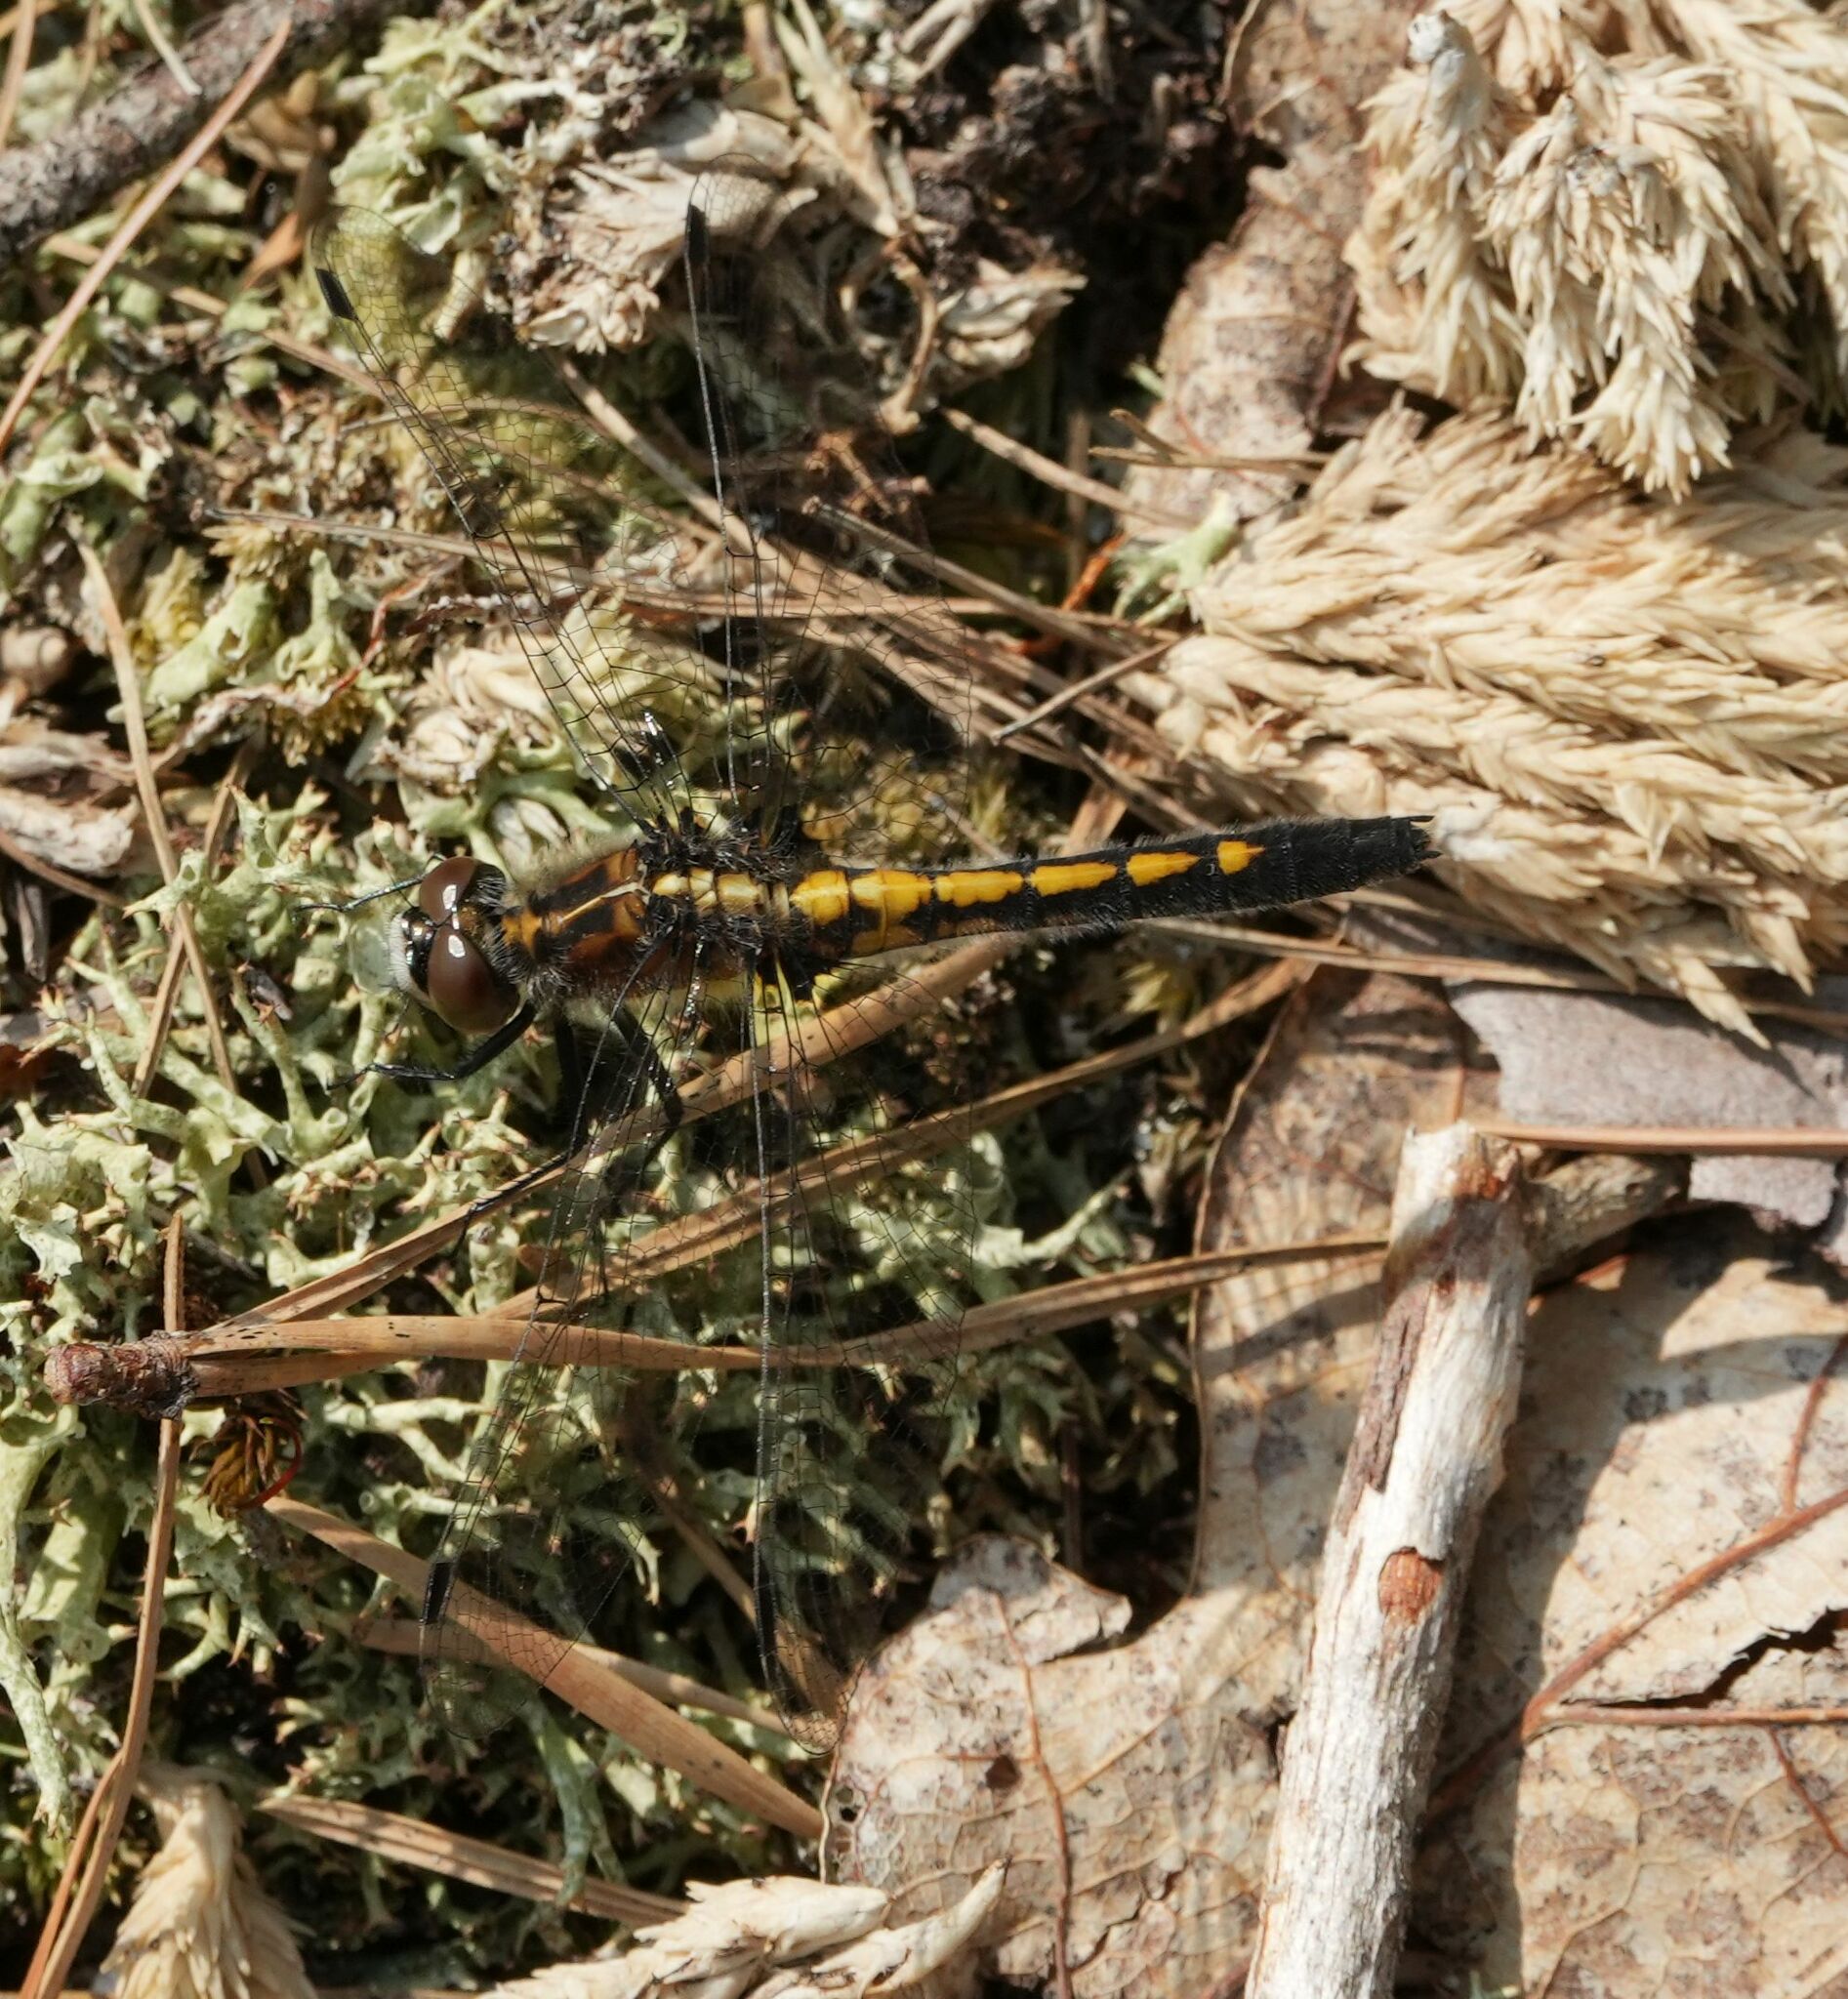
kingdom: Animalia
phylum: Arthropoda
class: Insecta
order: Odonata
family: Libellulidae
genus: Leucorrhinia
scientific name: Leucorrhinia intacta
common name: Dot-tailed whiteface
